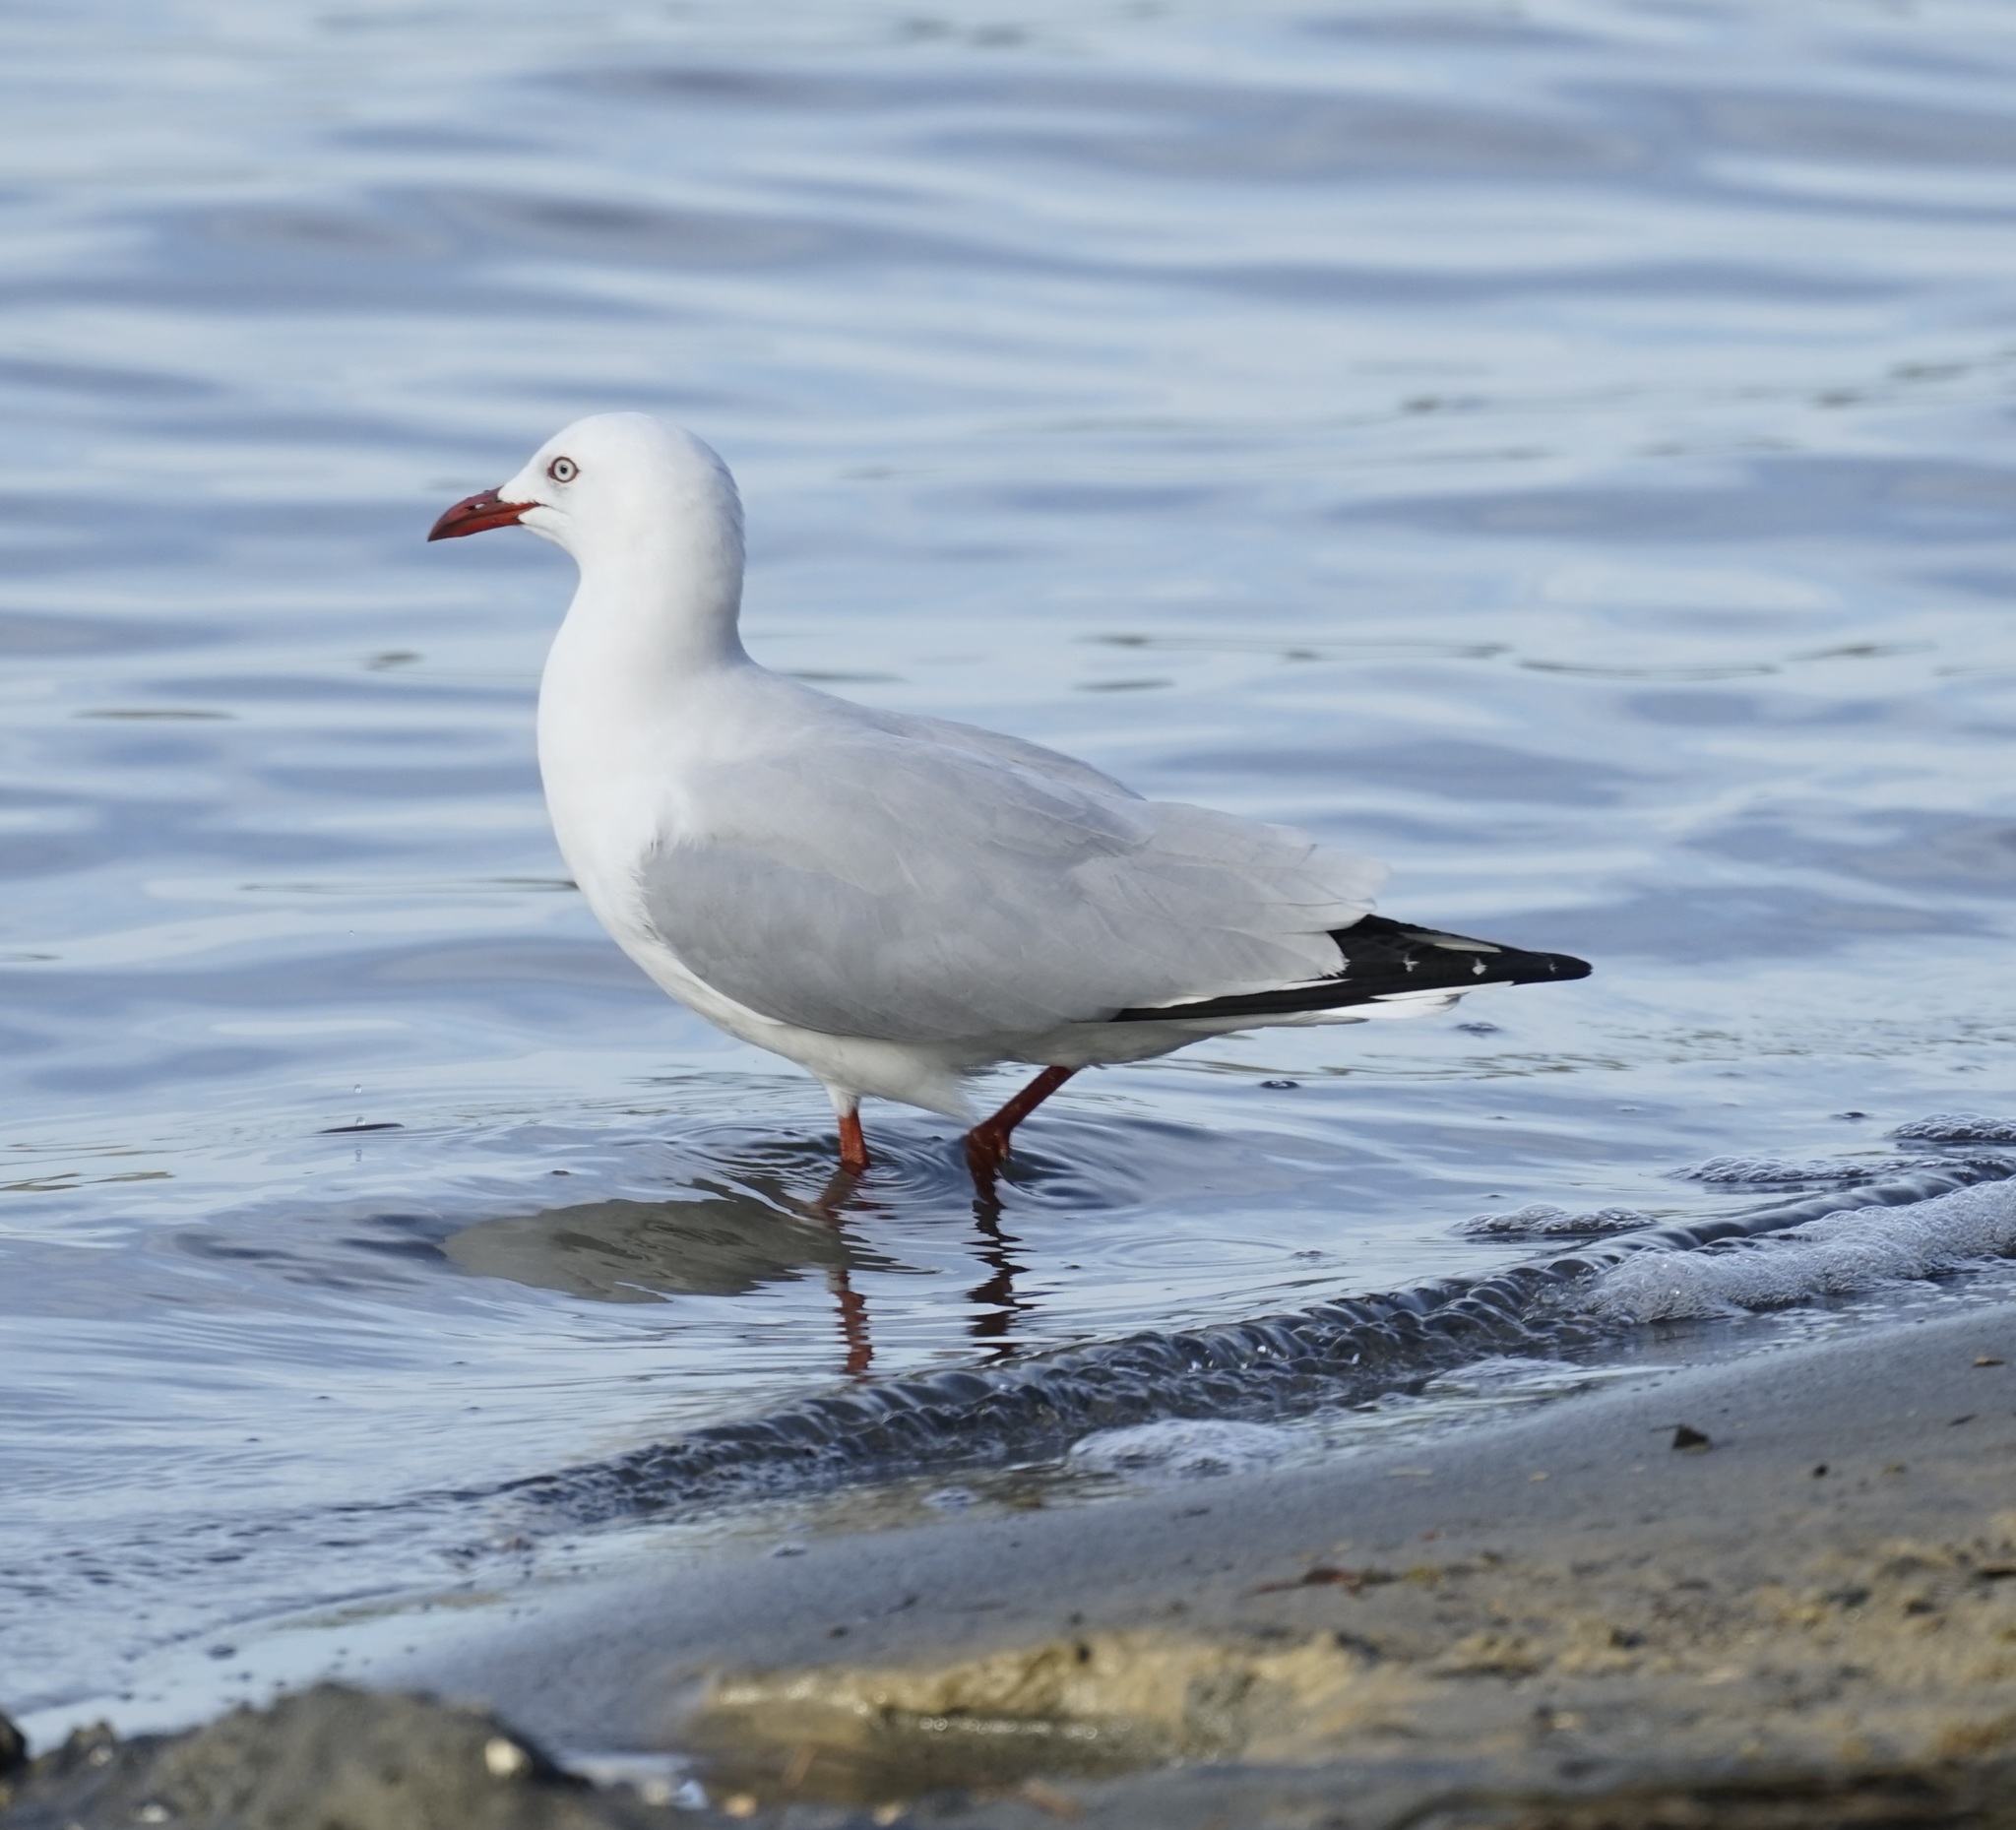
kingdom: Animalia
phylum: Chordata
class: Aves
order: Charadriiformes
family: Laridae
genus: Chroicocephalus
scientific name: Chroicocephalus novaehollandiae
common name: Silver gull
